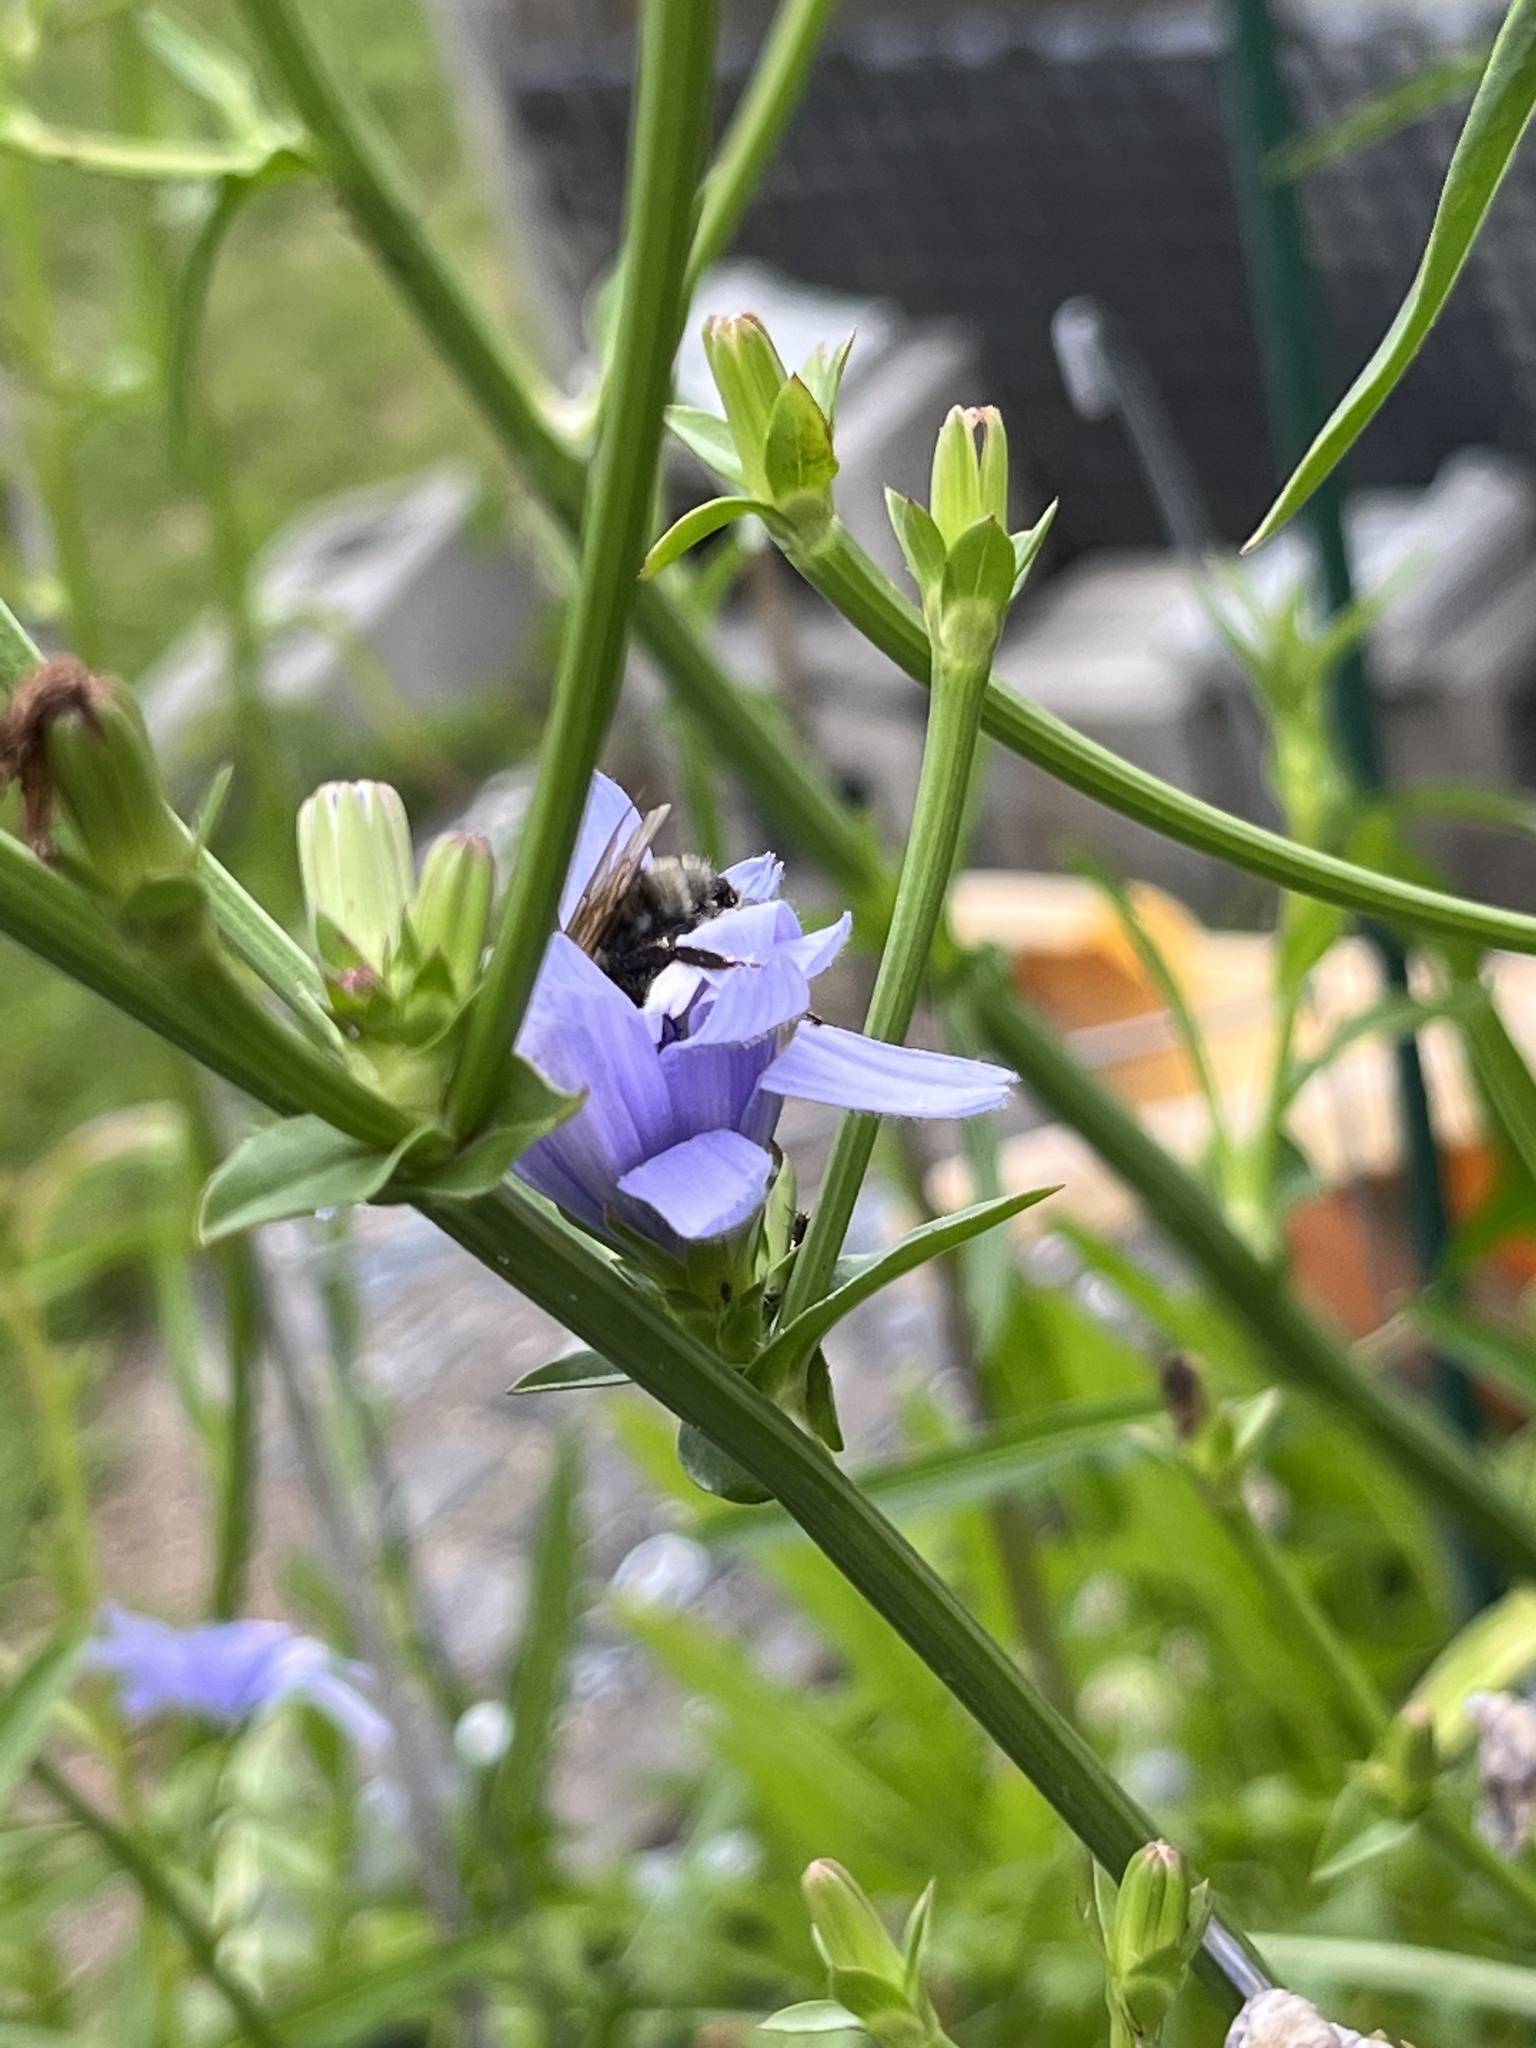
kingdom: Animalia
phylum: Arthropoda
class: Insecta
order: Hymenoptera
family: Apidae
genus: Bombus
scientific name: Bombus bimaculatus
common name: Two-spotted bumble bee
